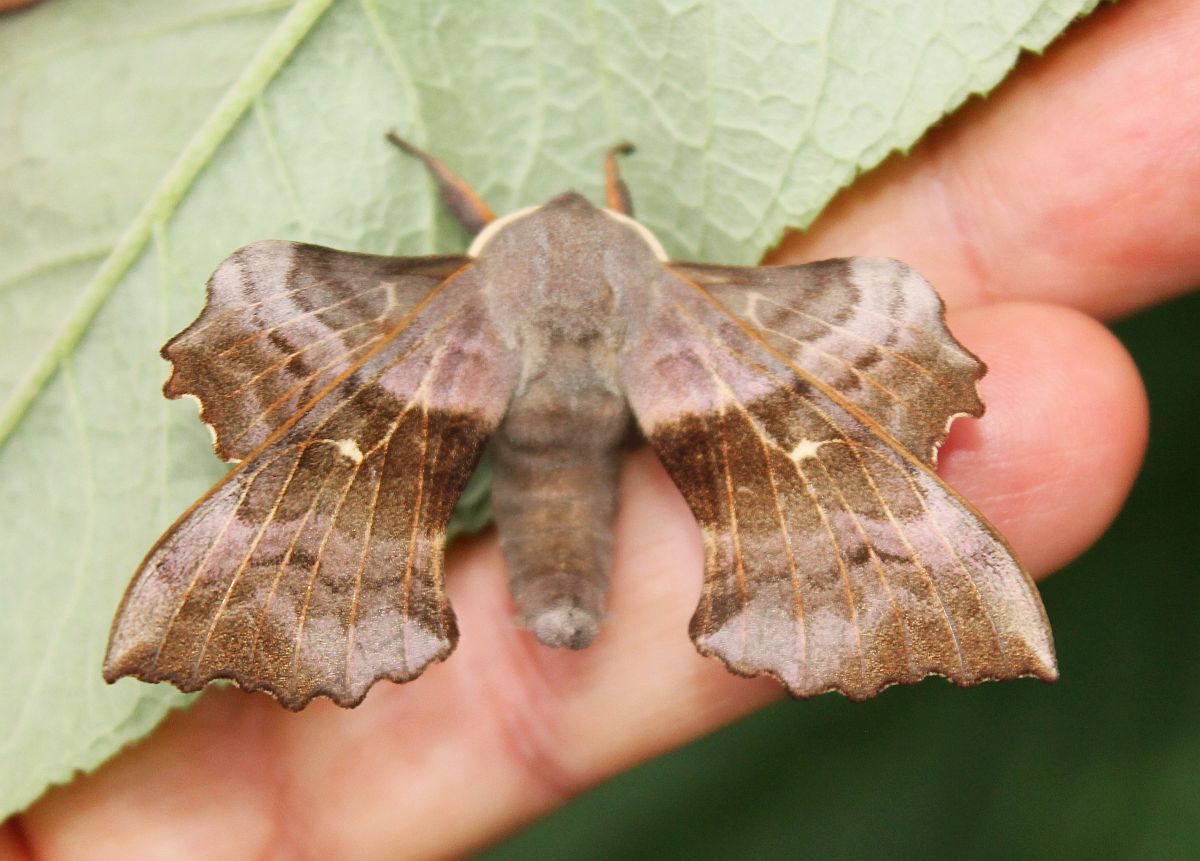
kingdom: Animalia
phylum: Arthropoda
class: Insecta
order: Lepidoptera
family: Sphingidae
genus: Laothoe
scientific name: Laothoe populi
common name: Poplar hawk-moth
